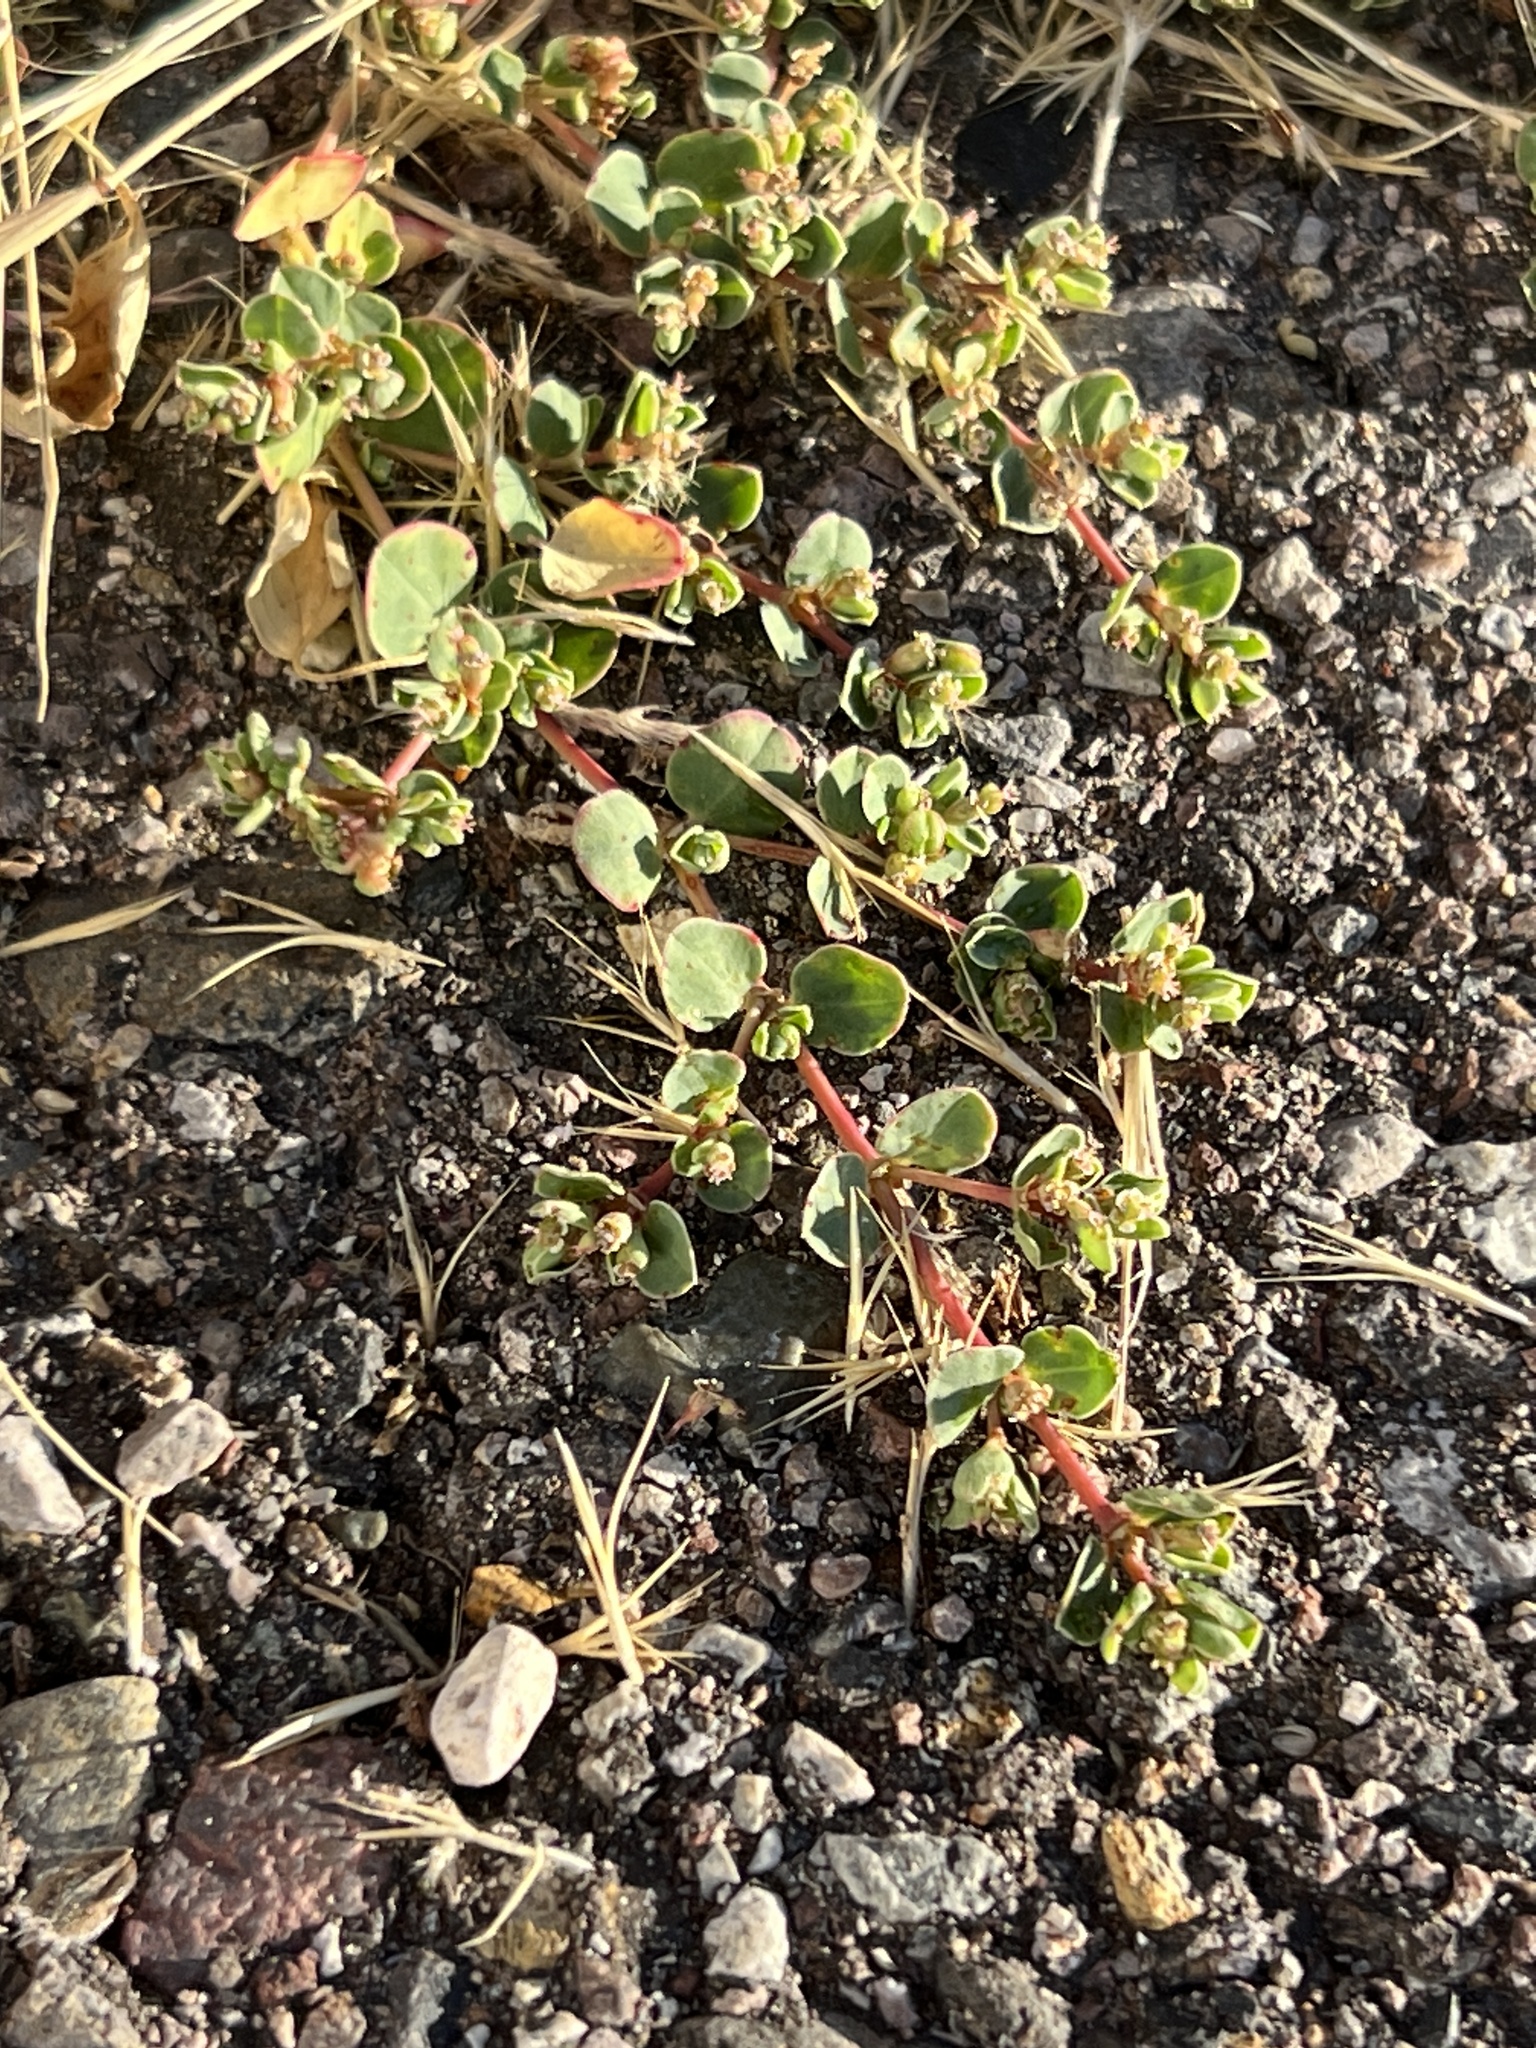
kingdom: Plantae
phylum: Tracheophyta
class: Magnoliopsida
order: Malpighiales
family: Euphorbiaceae
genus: Euphorbia
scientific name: Euphorbia albomarginata
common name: Whitemargin sandmat
